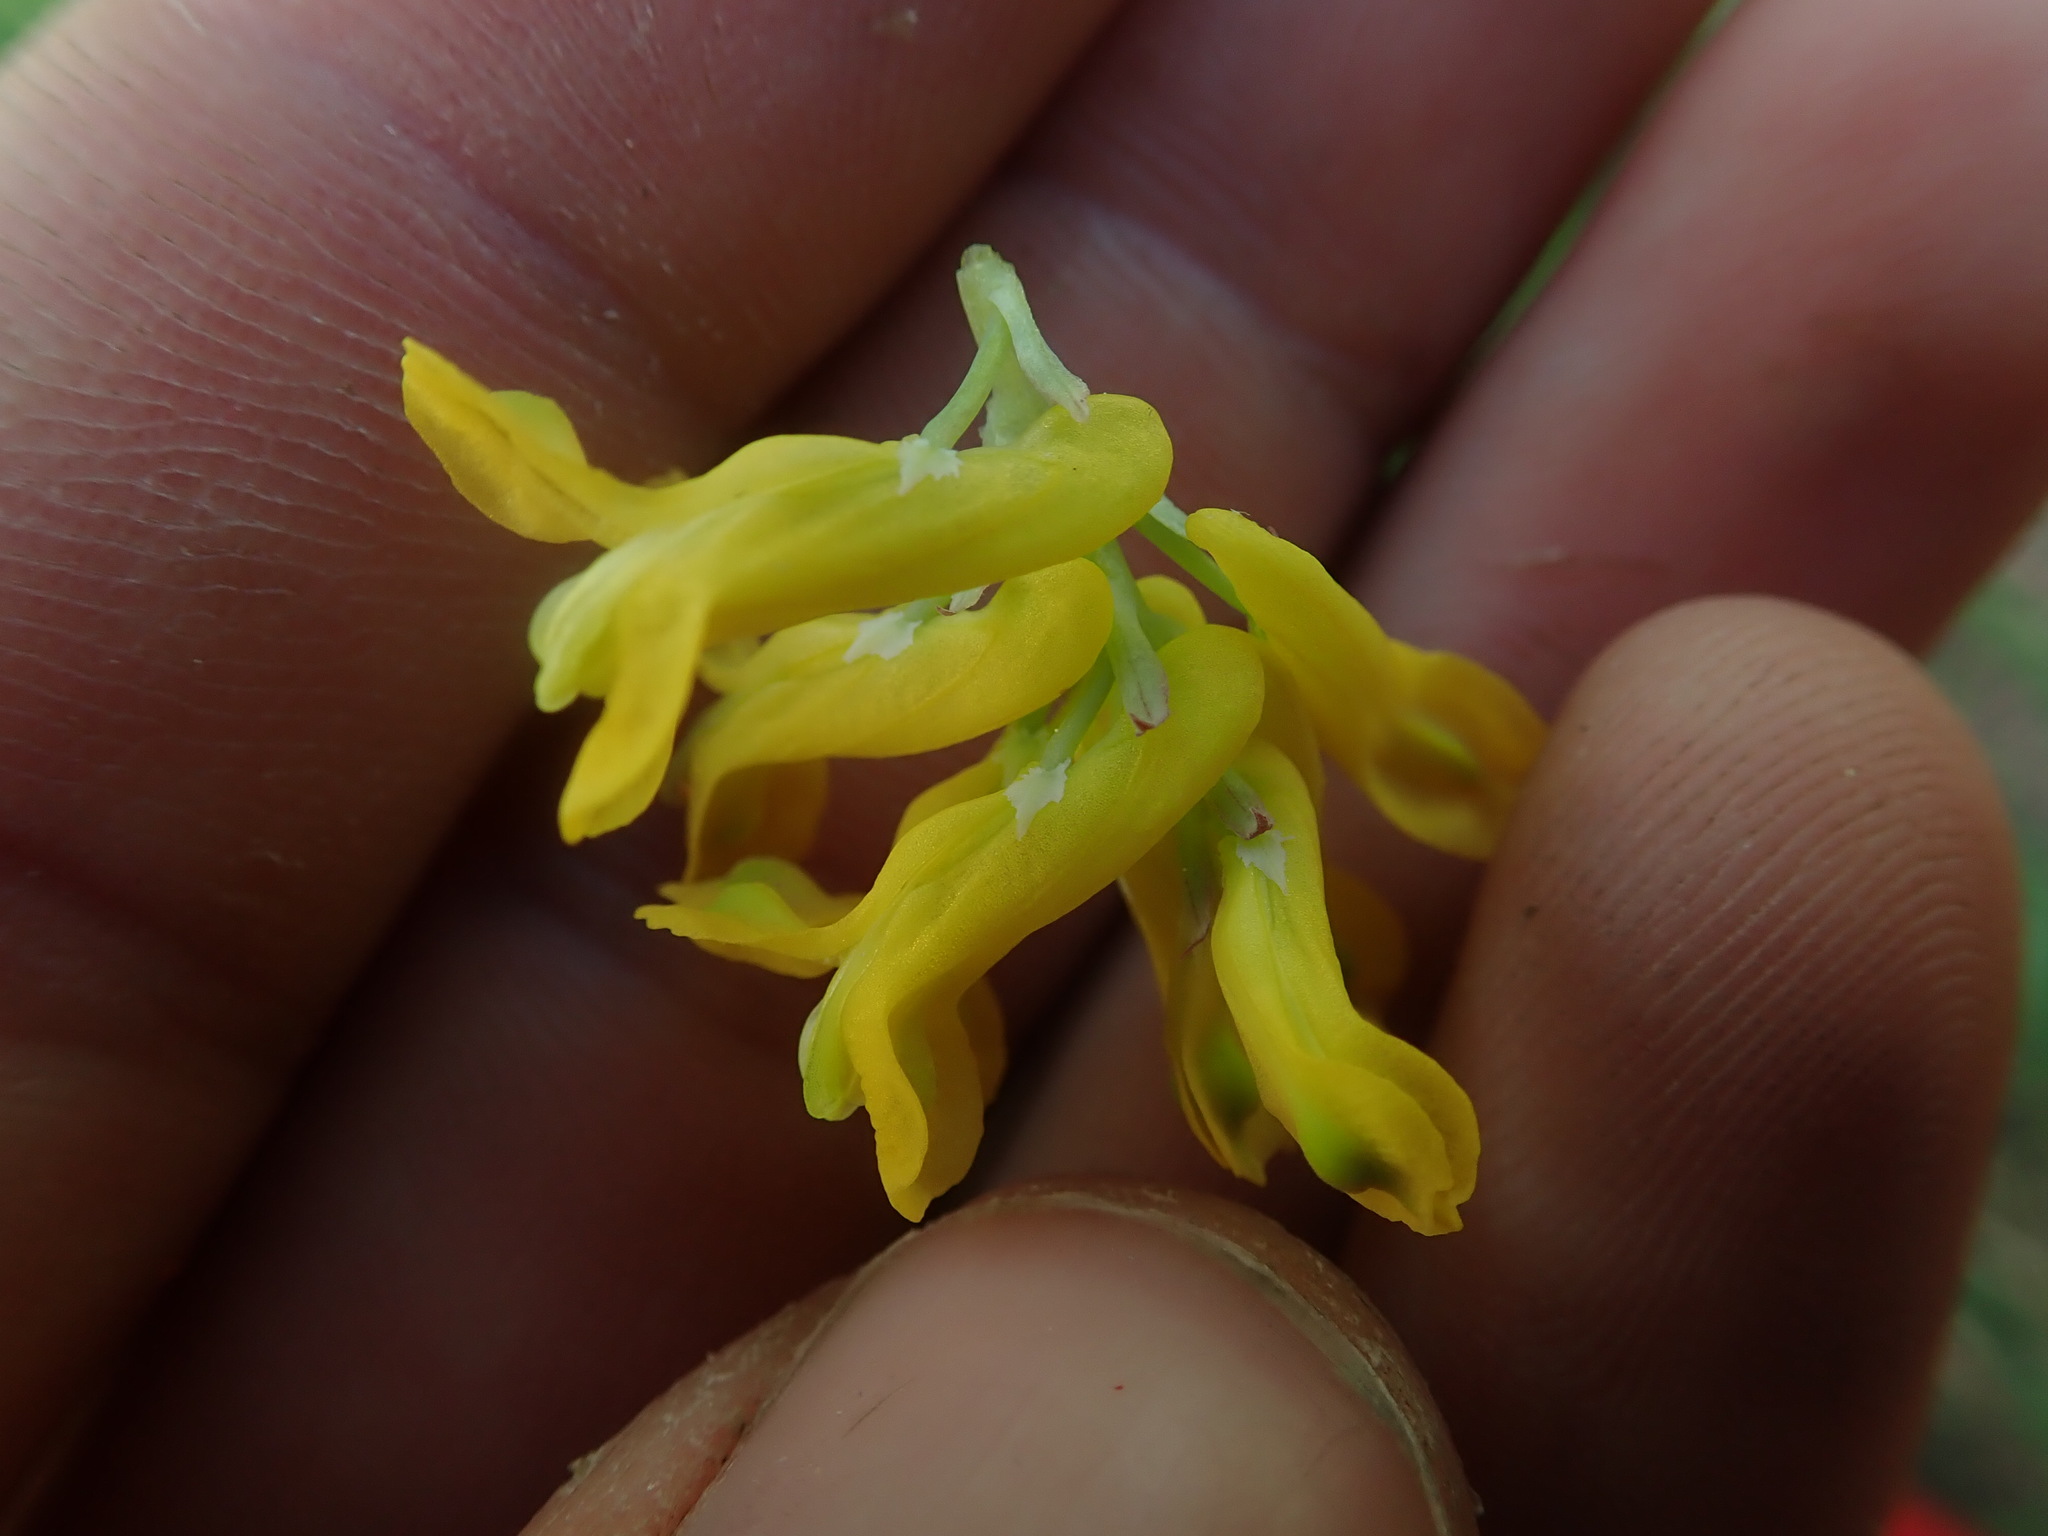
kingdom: Plantae
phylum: Tracheophyta
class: Magnoliopsida
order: Ranunculales
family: Papaveraceae
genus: Corydalis
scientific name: Corydalis aurea
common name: Golden corydalis
